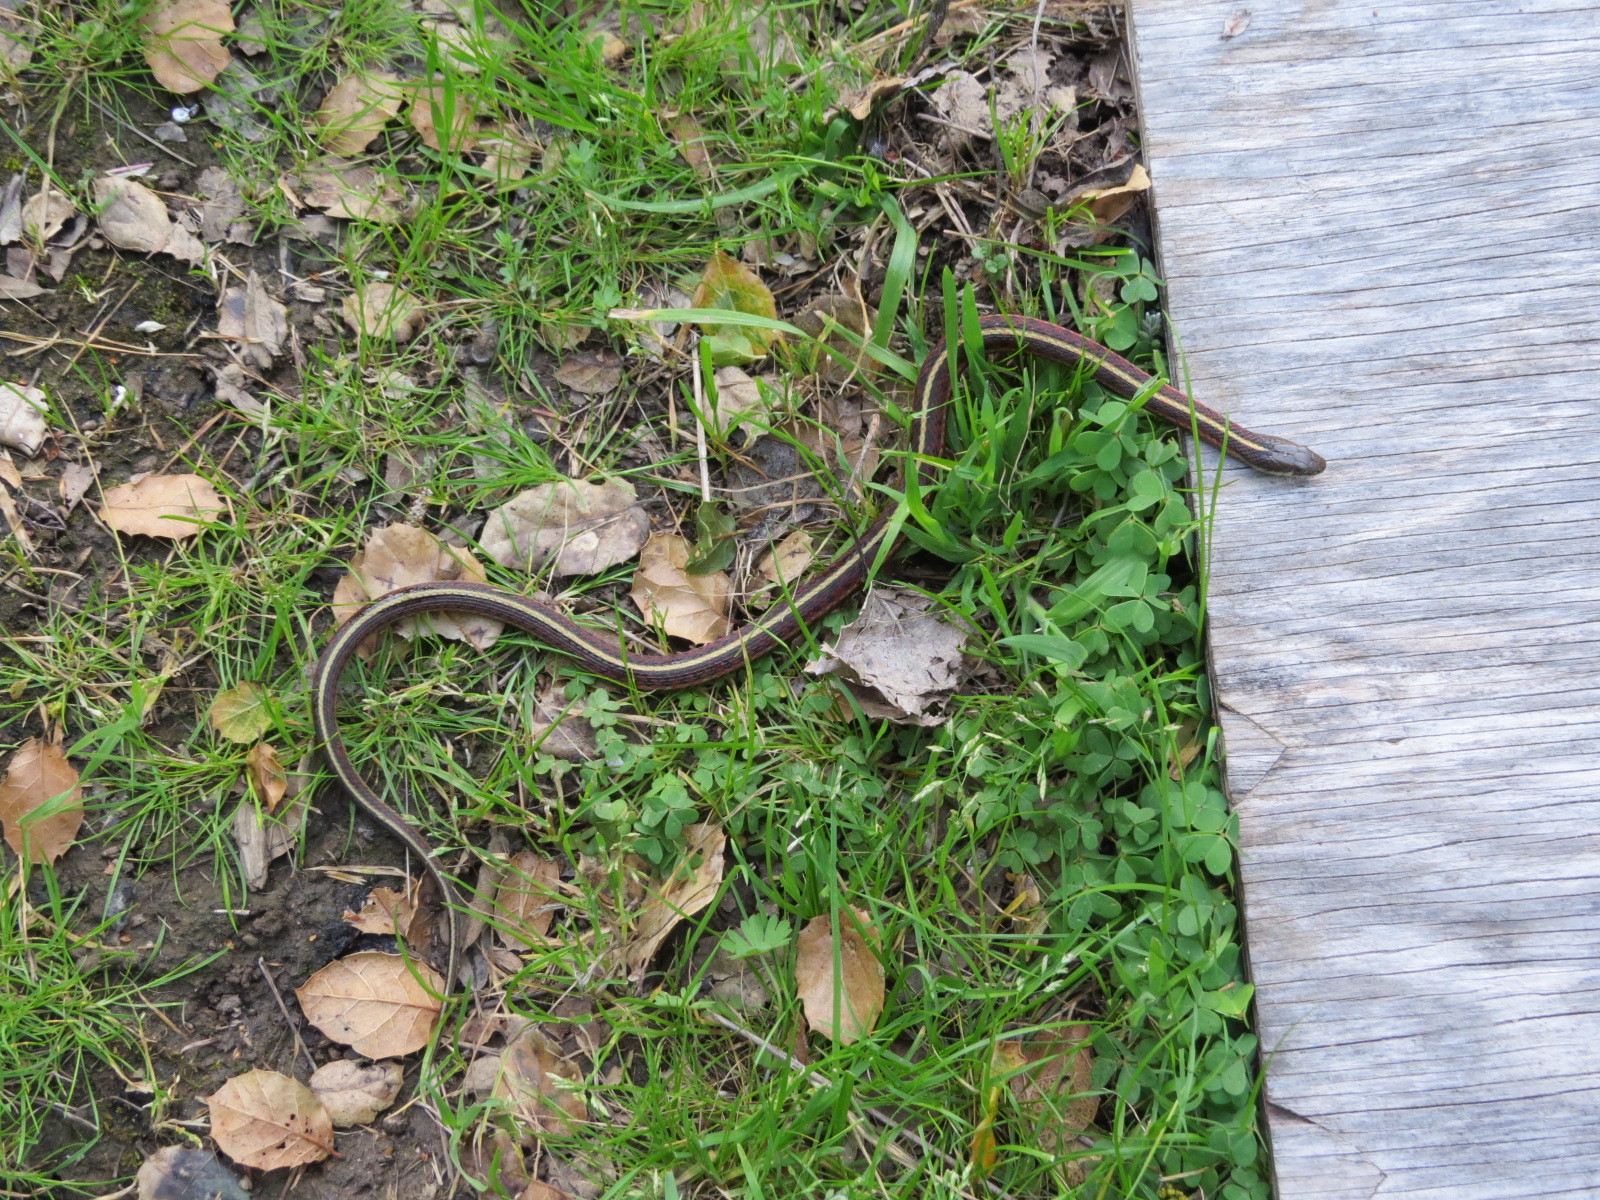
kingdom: Animalia
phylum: Chordata
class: Squamata
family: Colubridae
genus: Thamnophis
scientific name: Thamnophis elegans
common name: Western terrestrial garter snake
